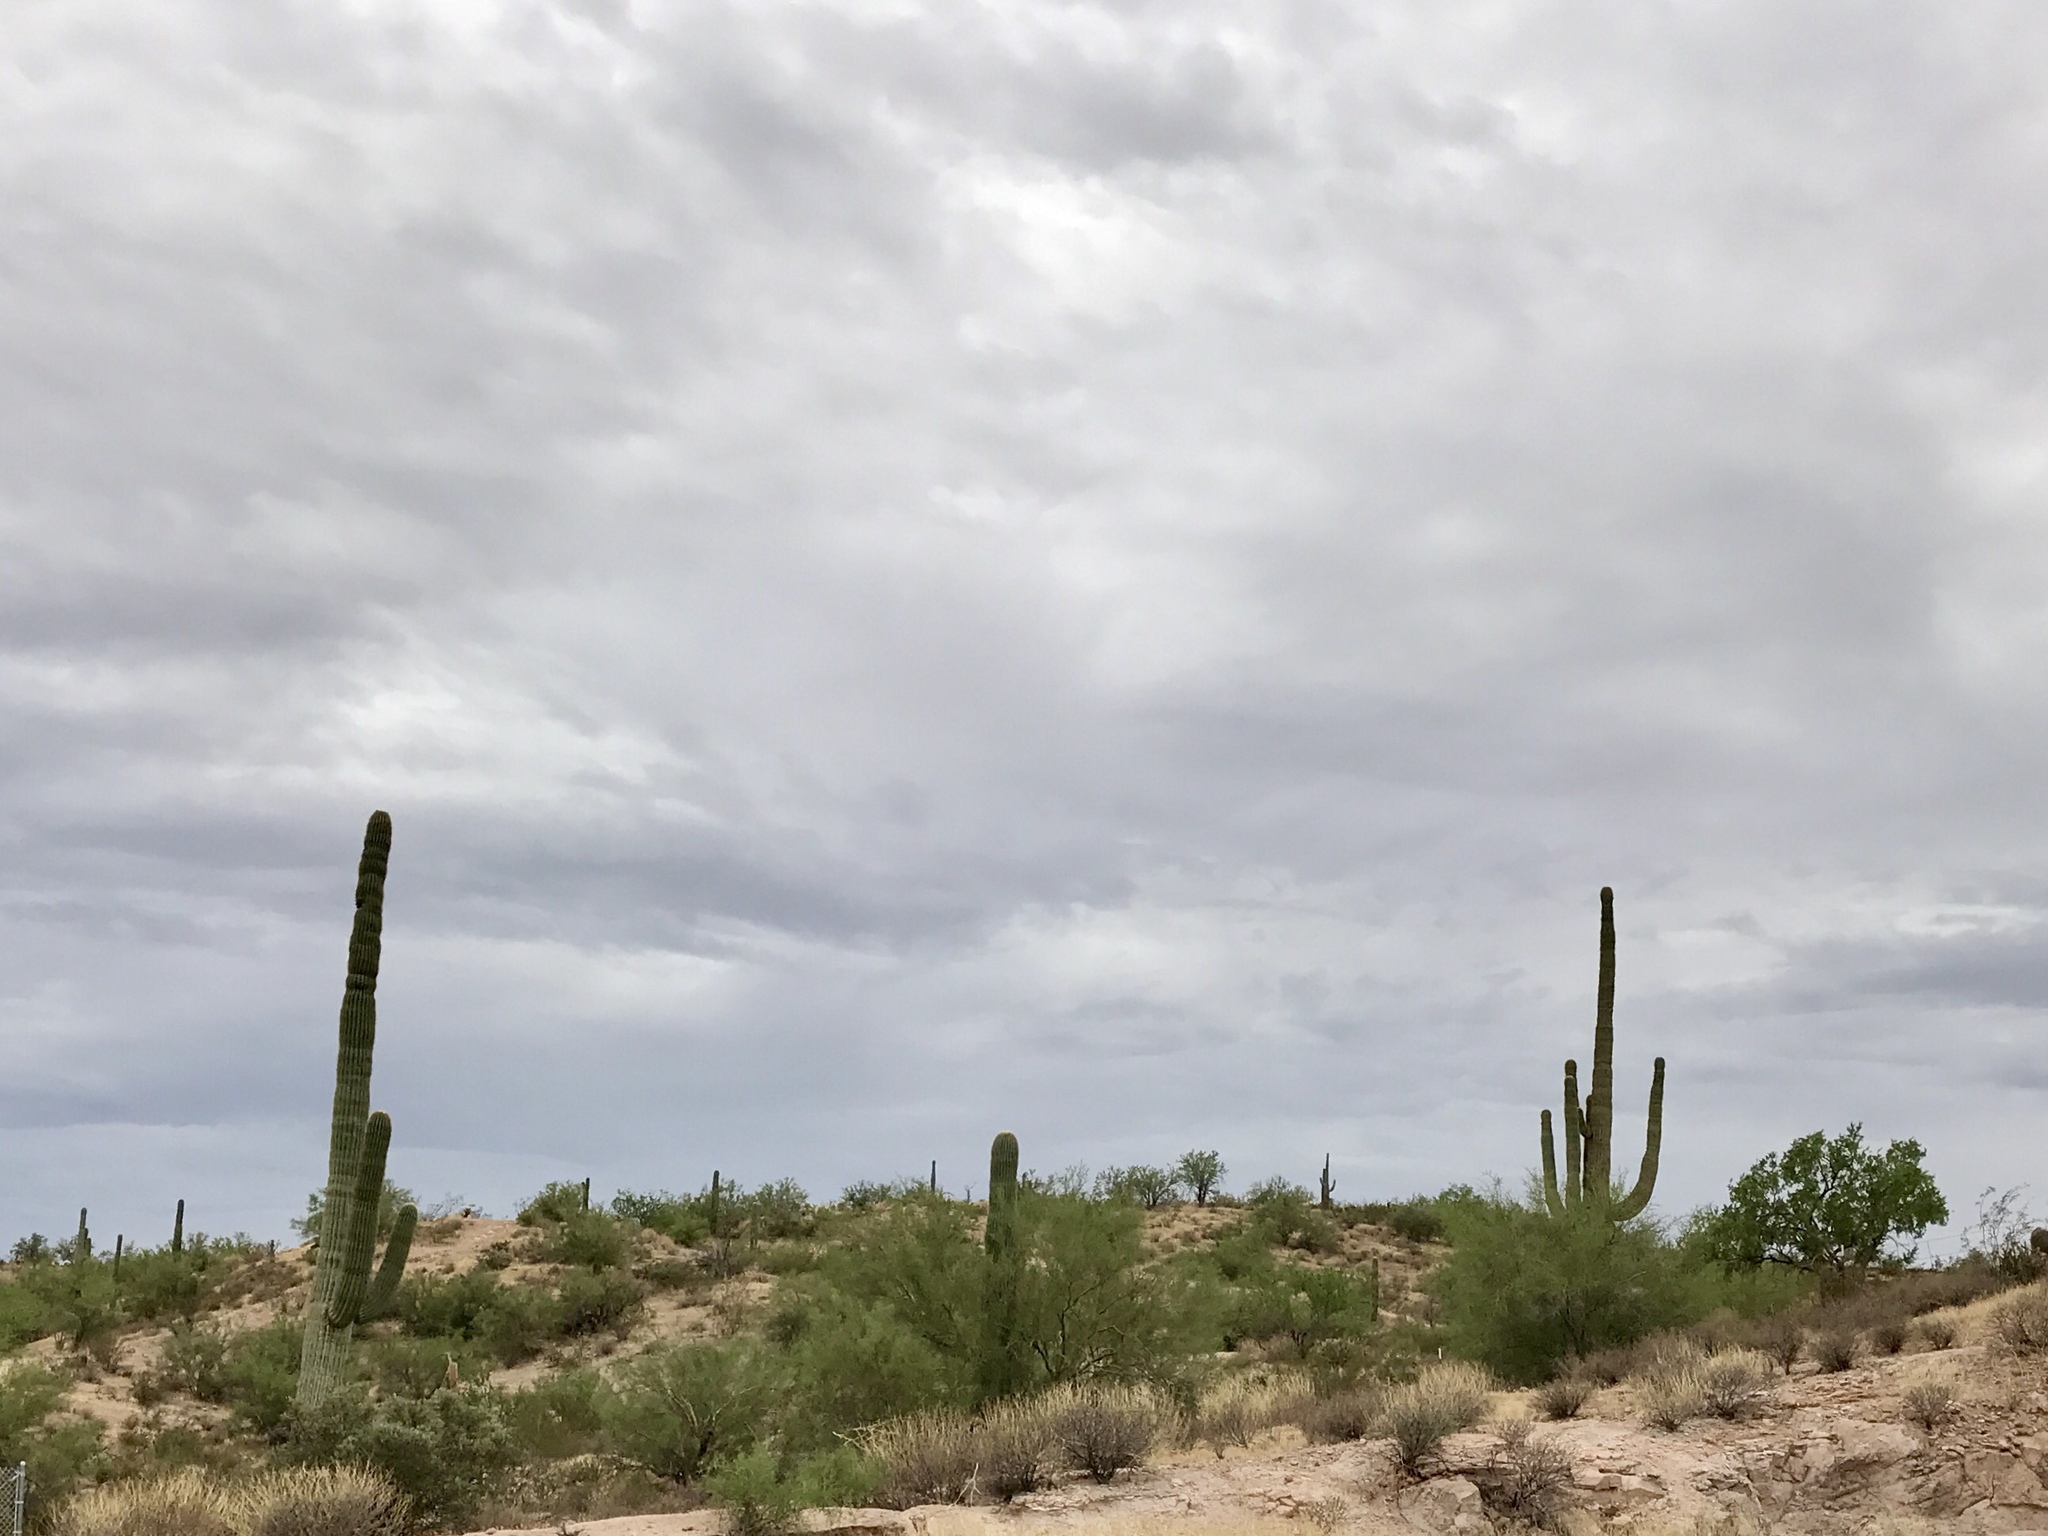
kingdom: Plantae
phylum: Tracheophyta
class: Magnoliopsida
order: Caryophyllales
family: Cactaceae
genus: Carnegiea
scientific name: Carnegiea gigantea
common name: Saguaro
